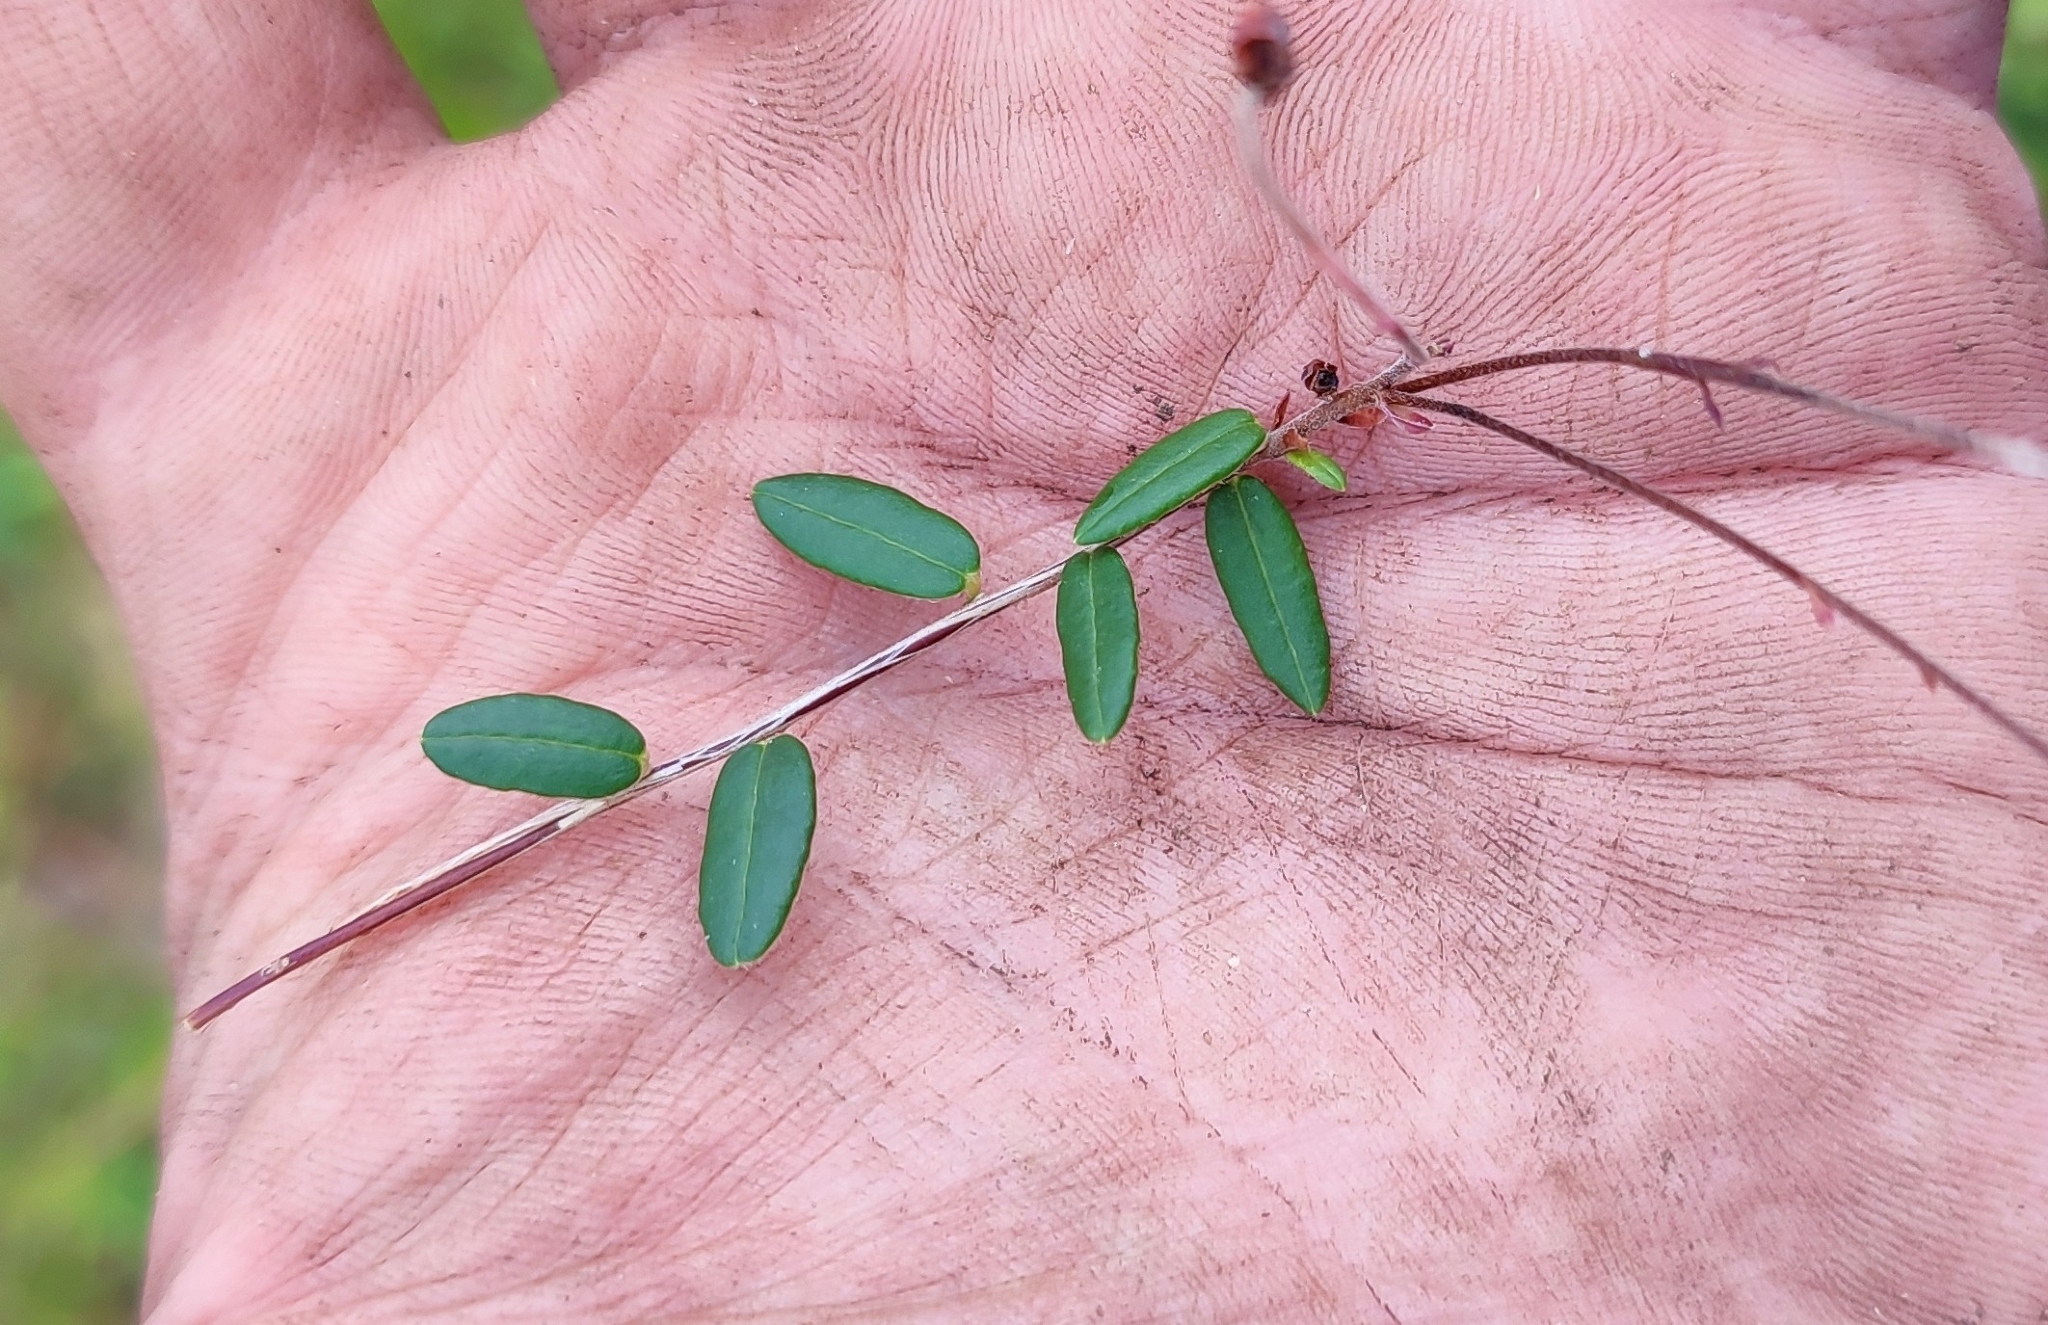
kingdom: Plantae
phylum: Tracheophyta
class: Magnoliopsida
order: Ericales
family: Ericaceae
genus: Vaccinium
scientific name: Vaccinium oxycoccos
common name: Cranberry
